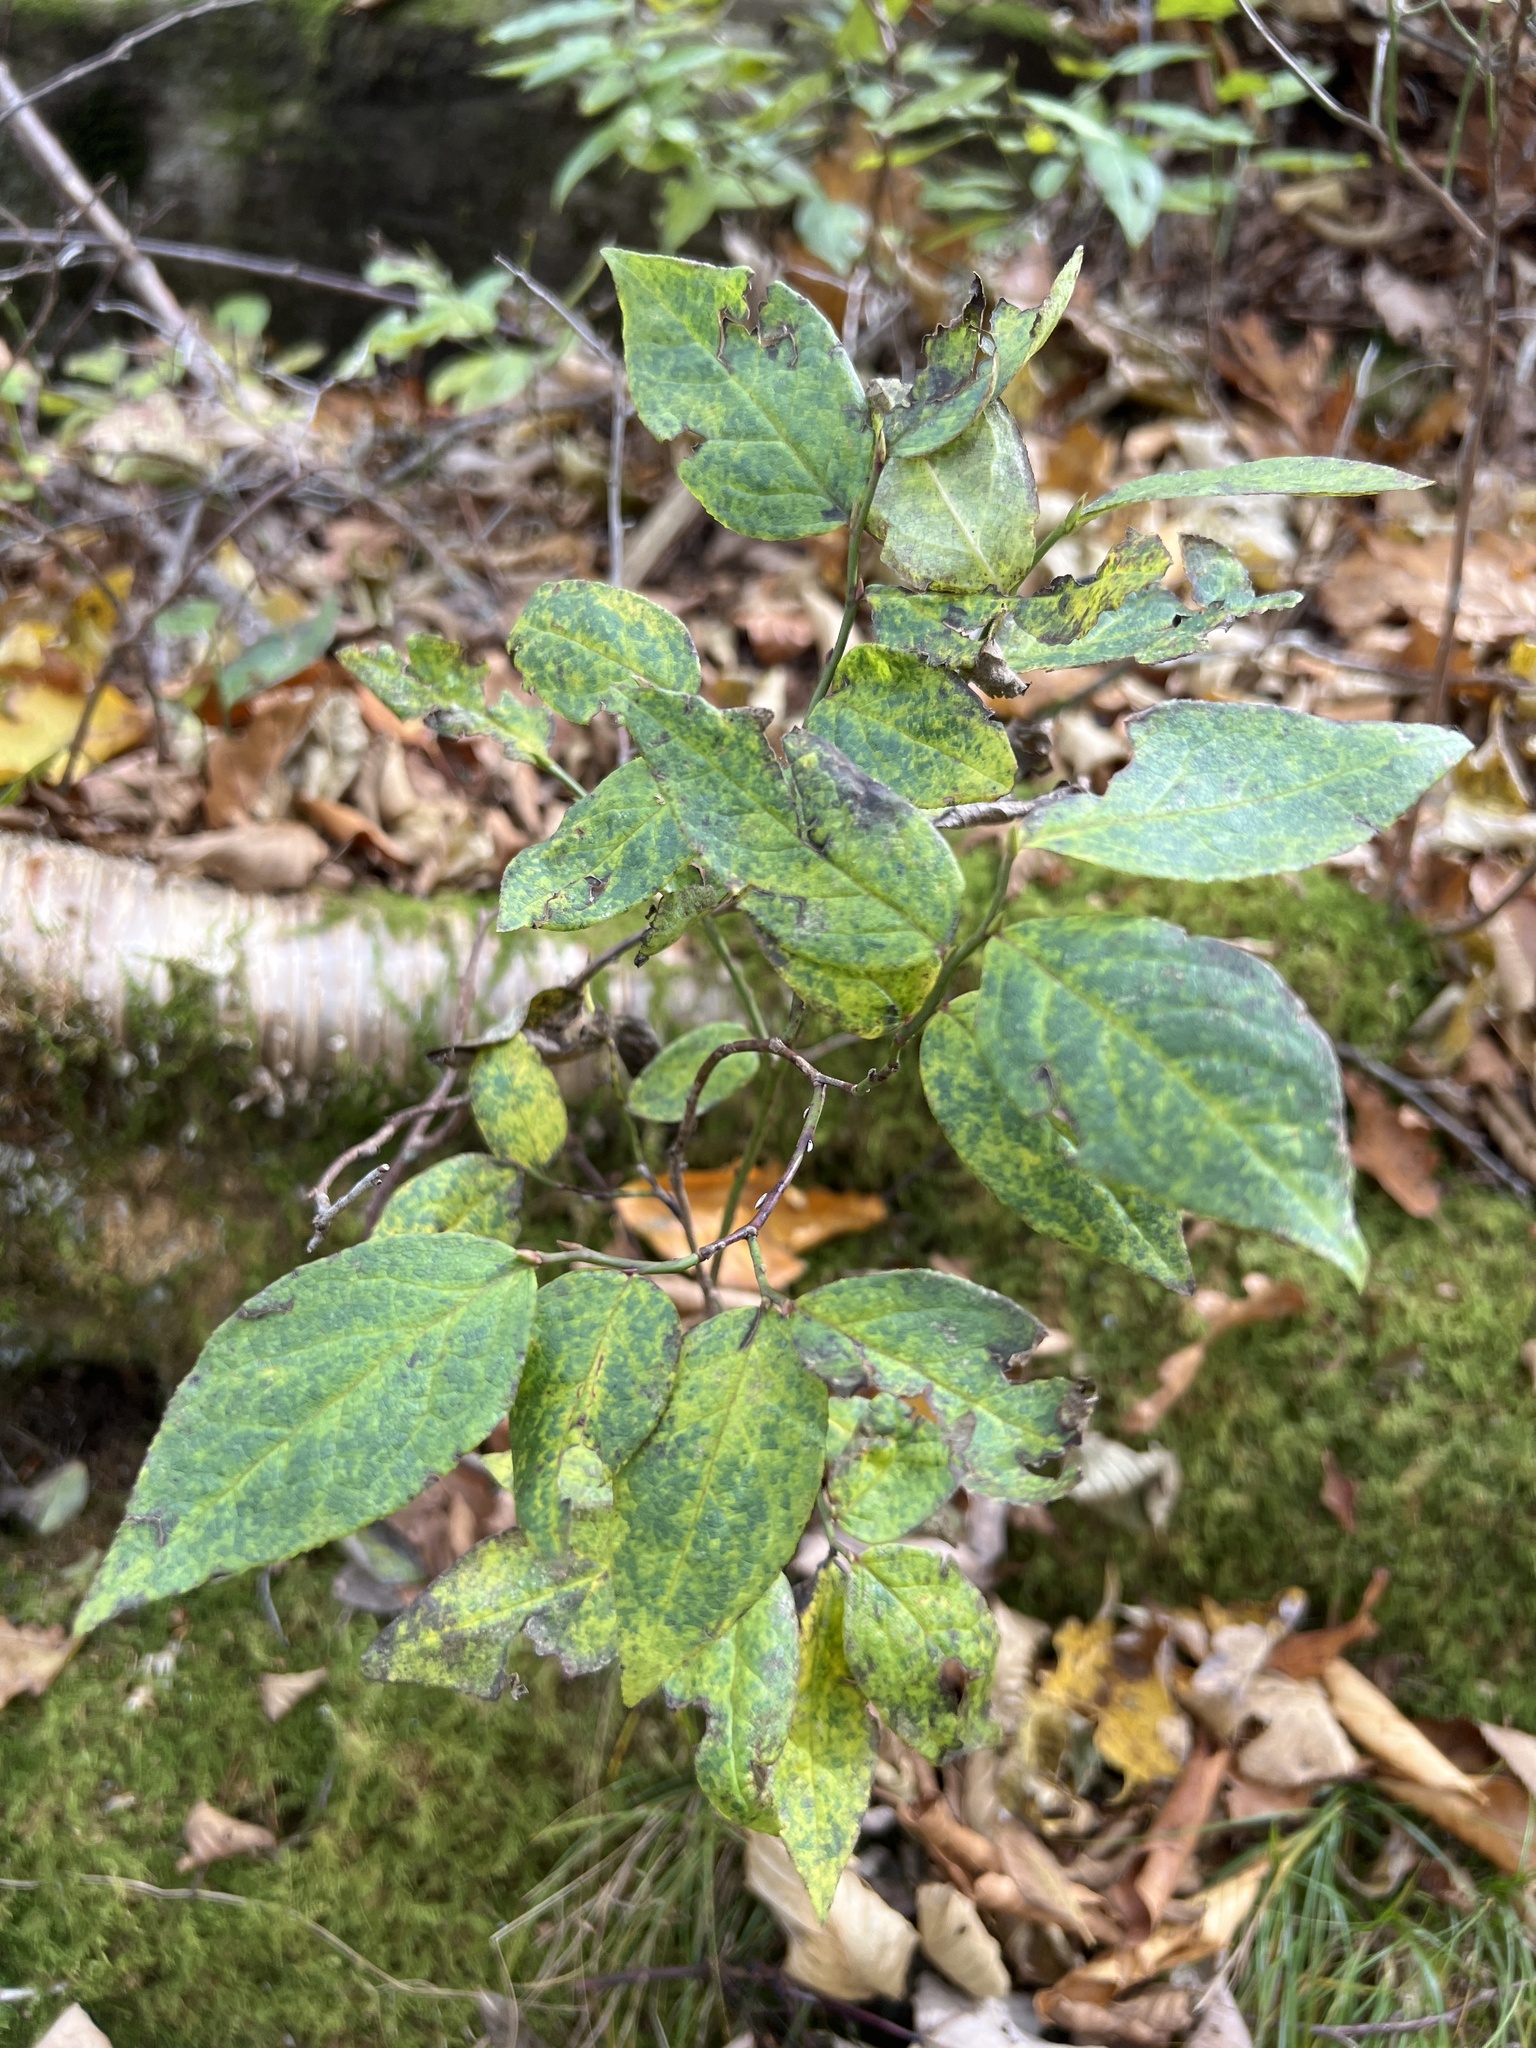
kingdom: Plantae
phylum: Tracheophyta
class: Magnoliopsida
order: Ericales
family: Ericaceae
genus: Vaccinium
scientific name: Vaccinium erythrocarpum
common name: Bearberry
